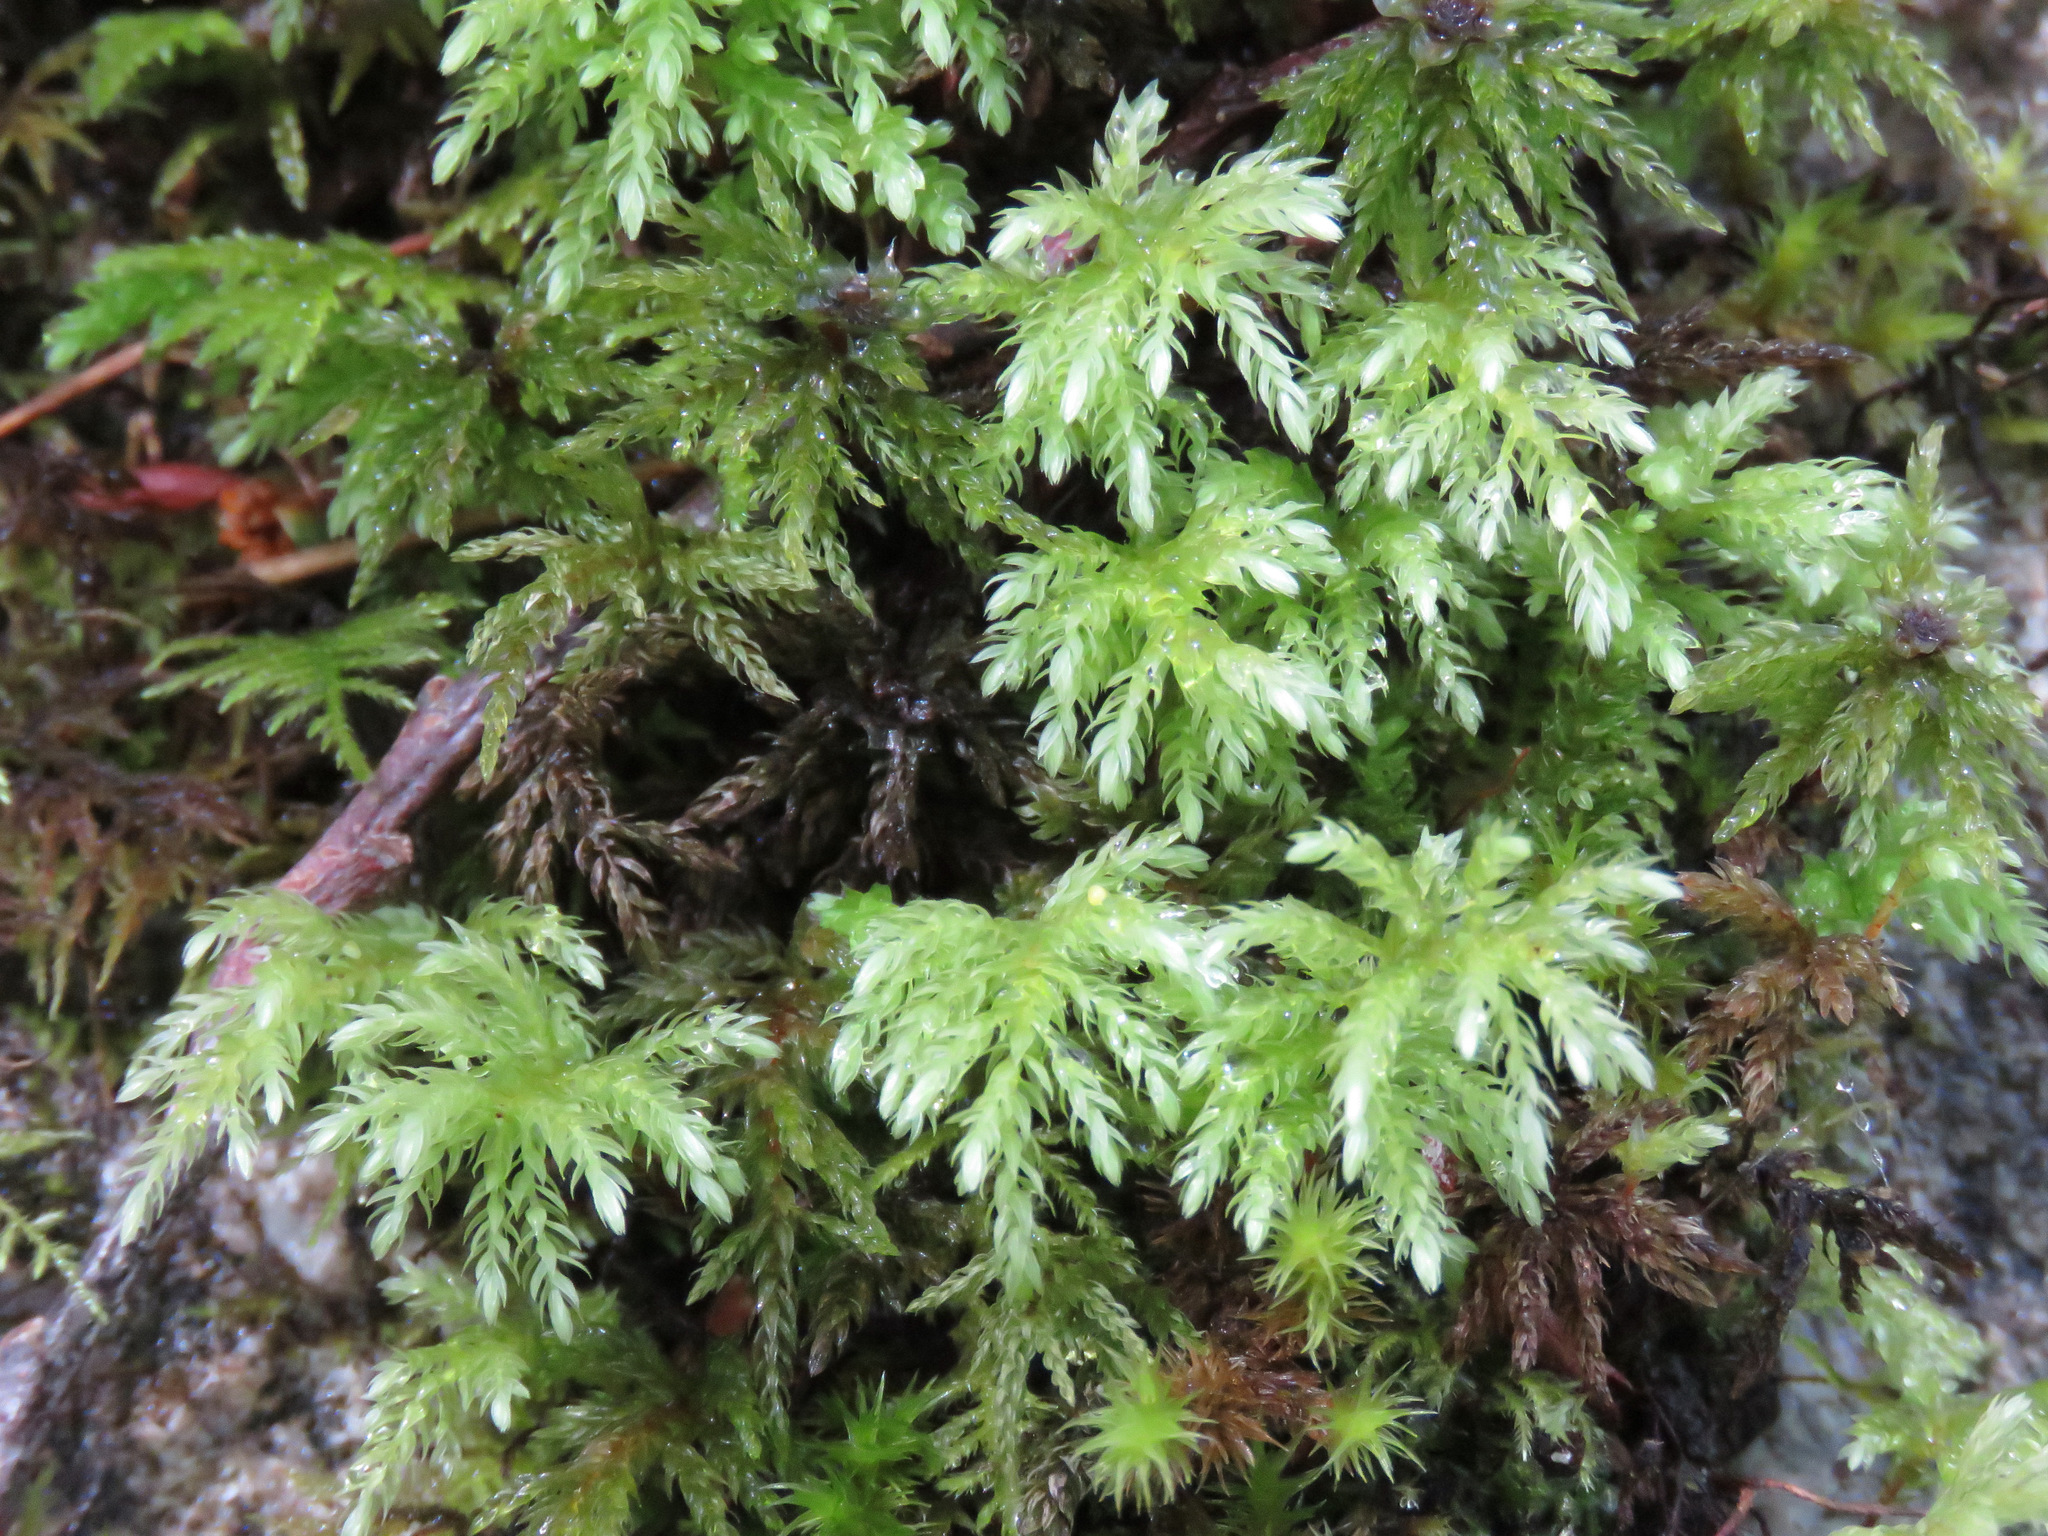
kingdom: Plantae
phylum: Bryophyta
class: Bryopsida
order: Bryales
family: Mniaceae
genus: Leucolepis
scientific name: Leucolepis acanthoneura
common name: Leucolepis umbrella moss
